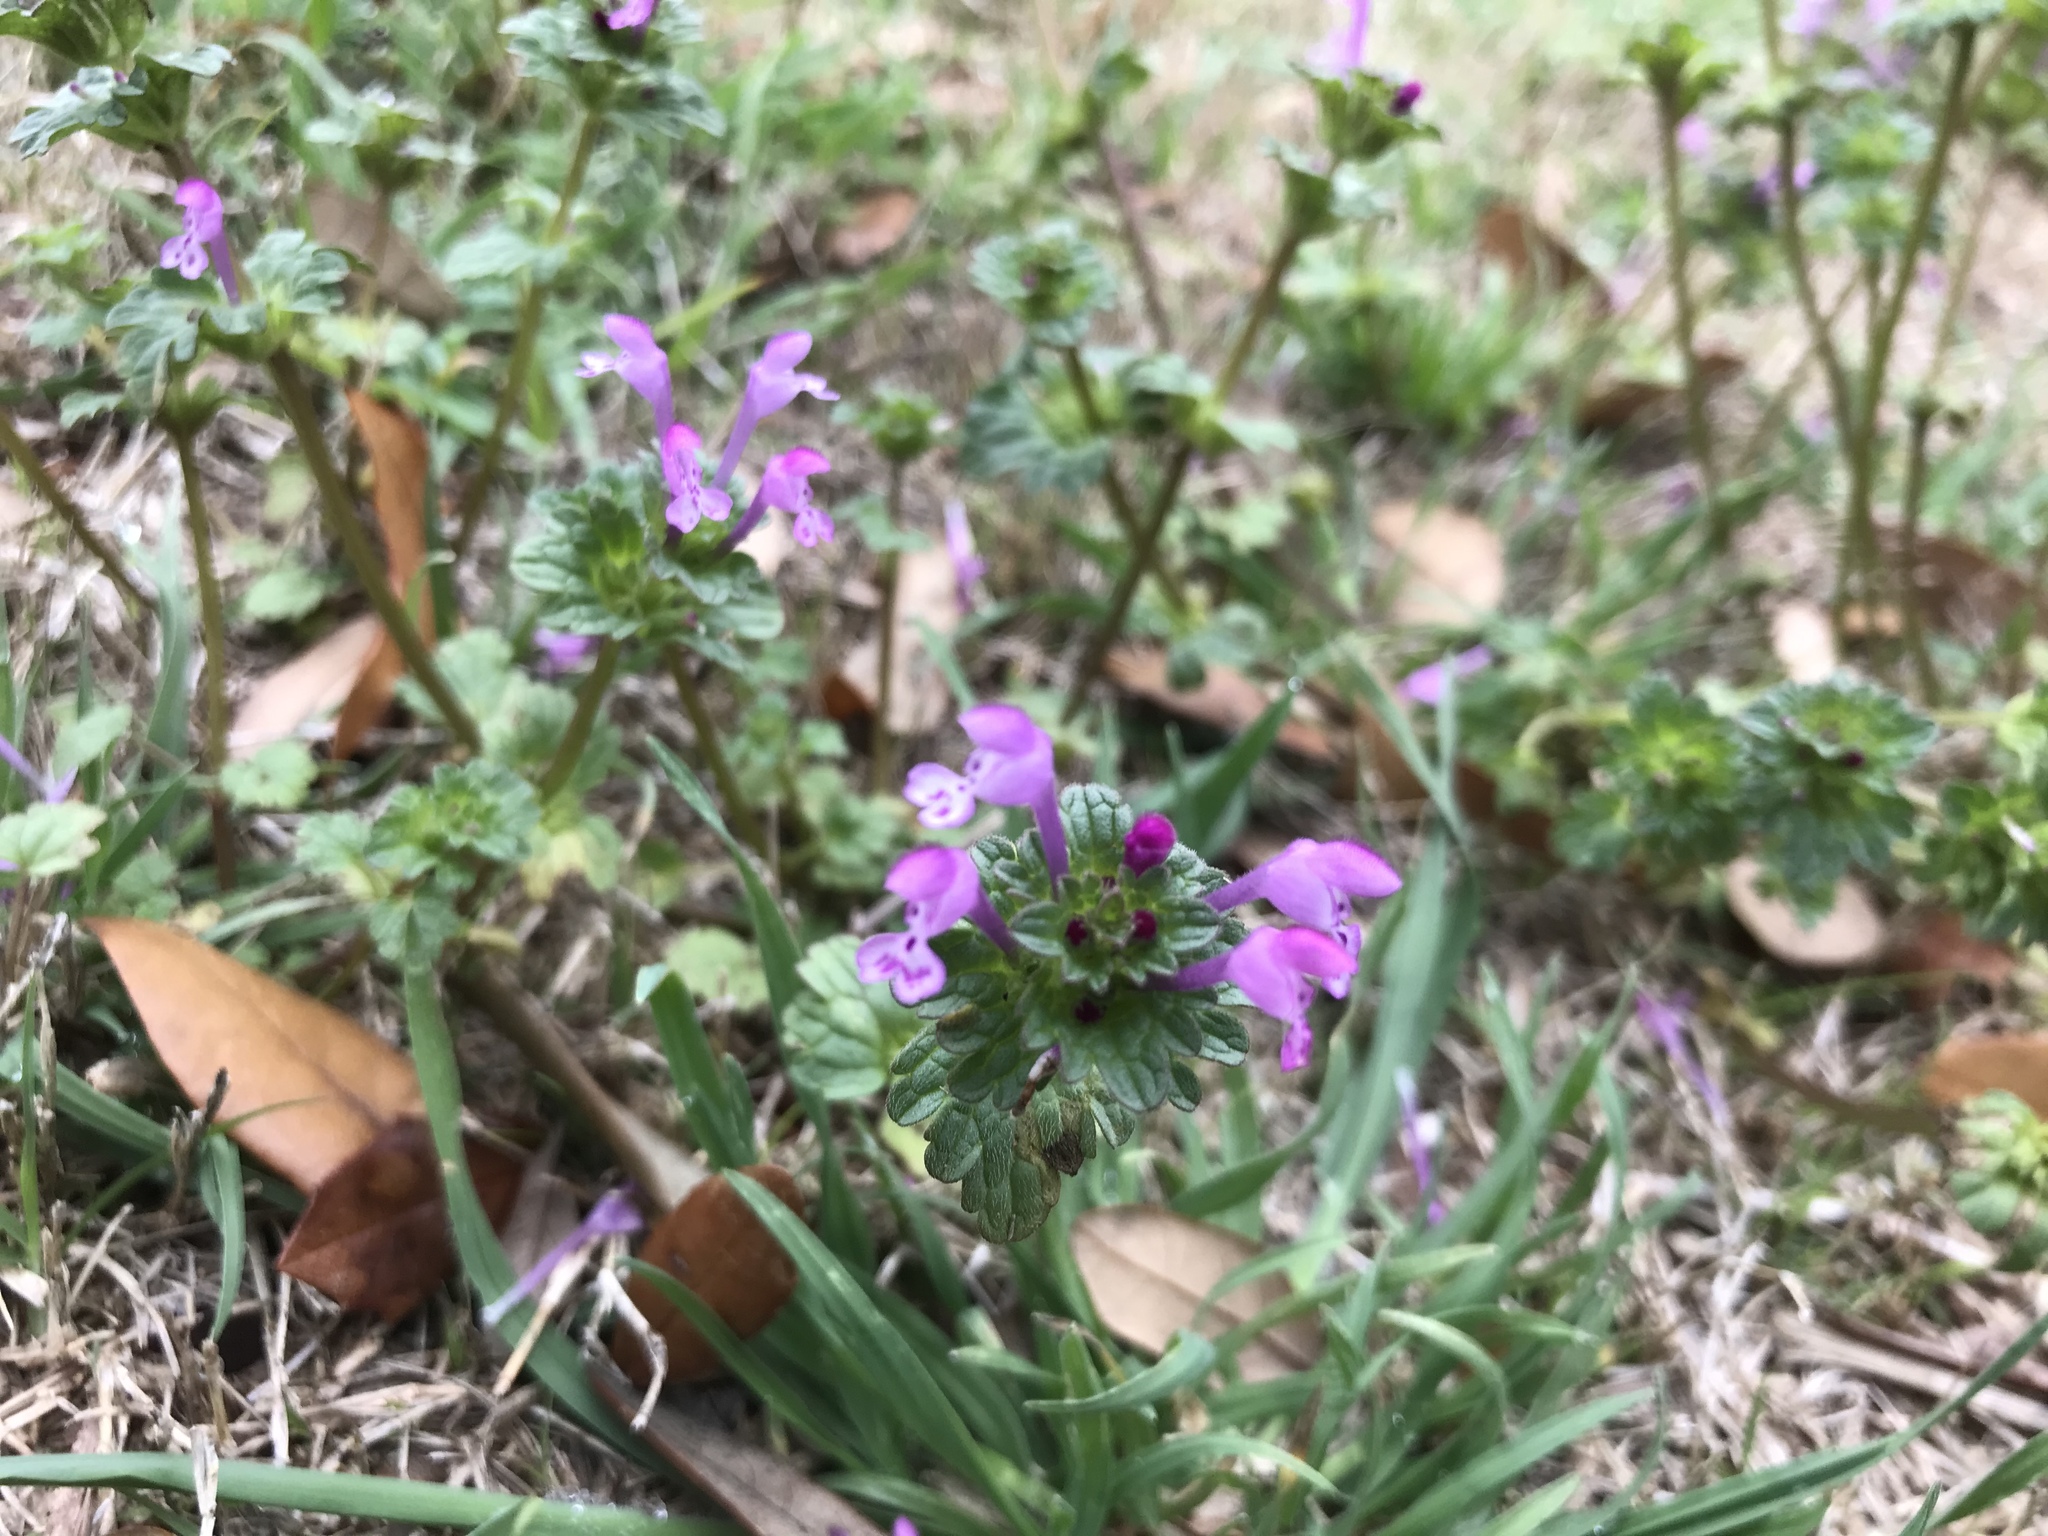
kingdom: Plantae
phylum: Tracheophyta
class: Magnoliopsida
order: Lamiales
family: Lamiaceae
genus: Lamium
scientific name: Lamium amplexicaule
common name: Henbit dead-nettle
